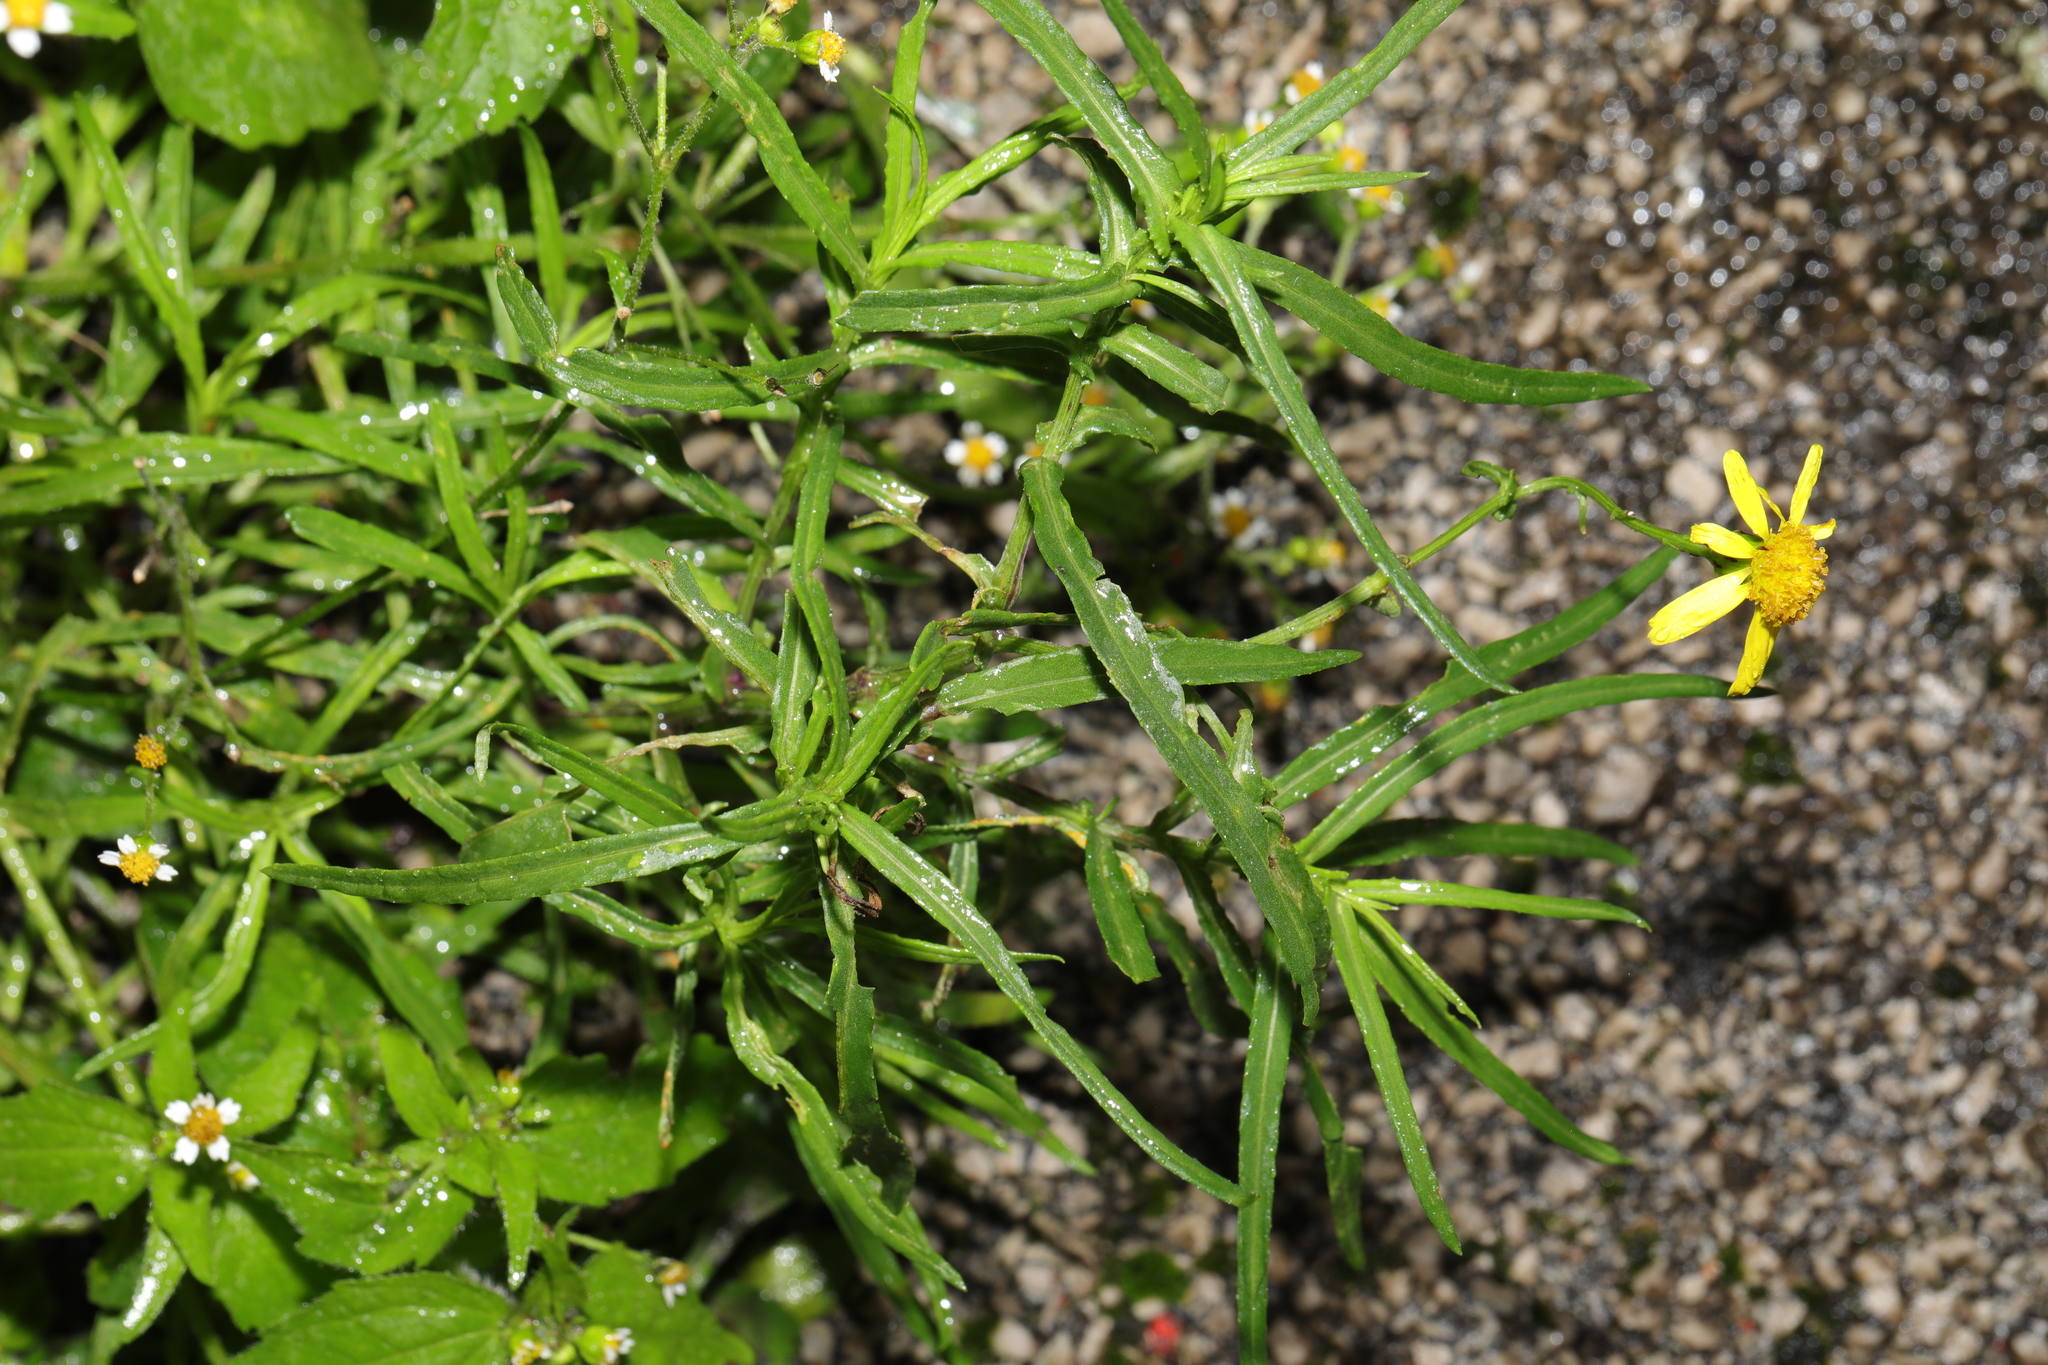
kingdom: Plantae
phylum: Tracheophyta
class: Magnoliopsida
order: Asterales
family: Asteraceae
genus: Senecio
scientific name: Senecio inaequidens
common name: Narrow-leaved ragwort
